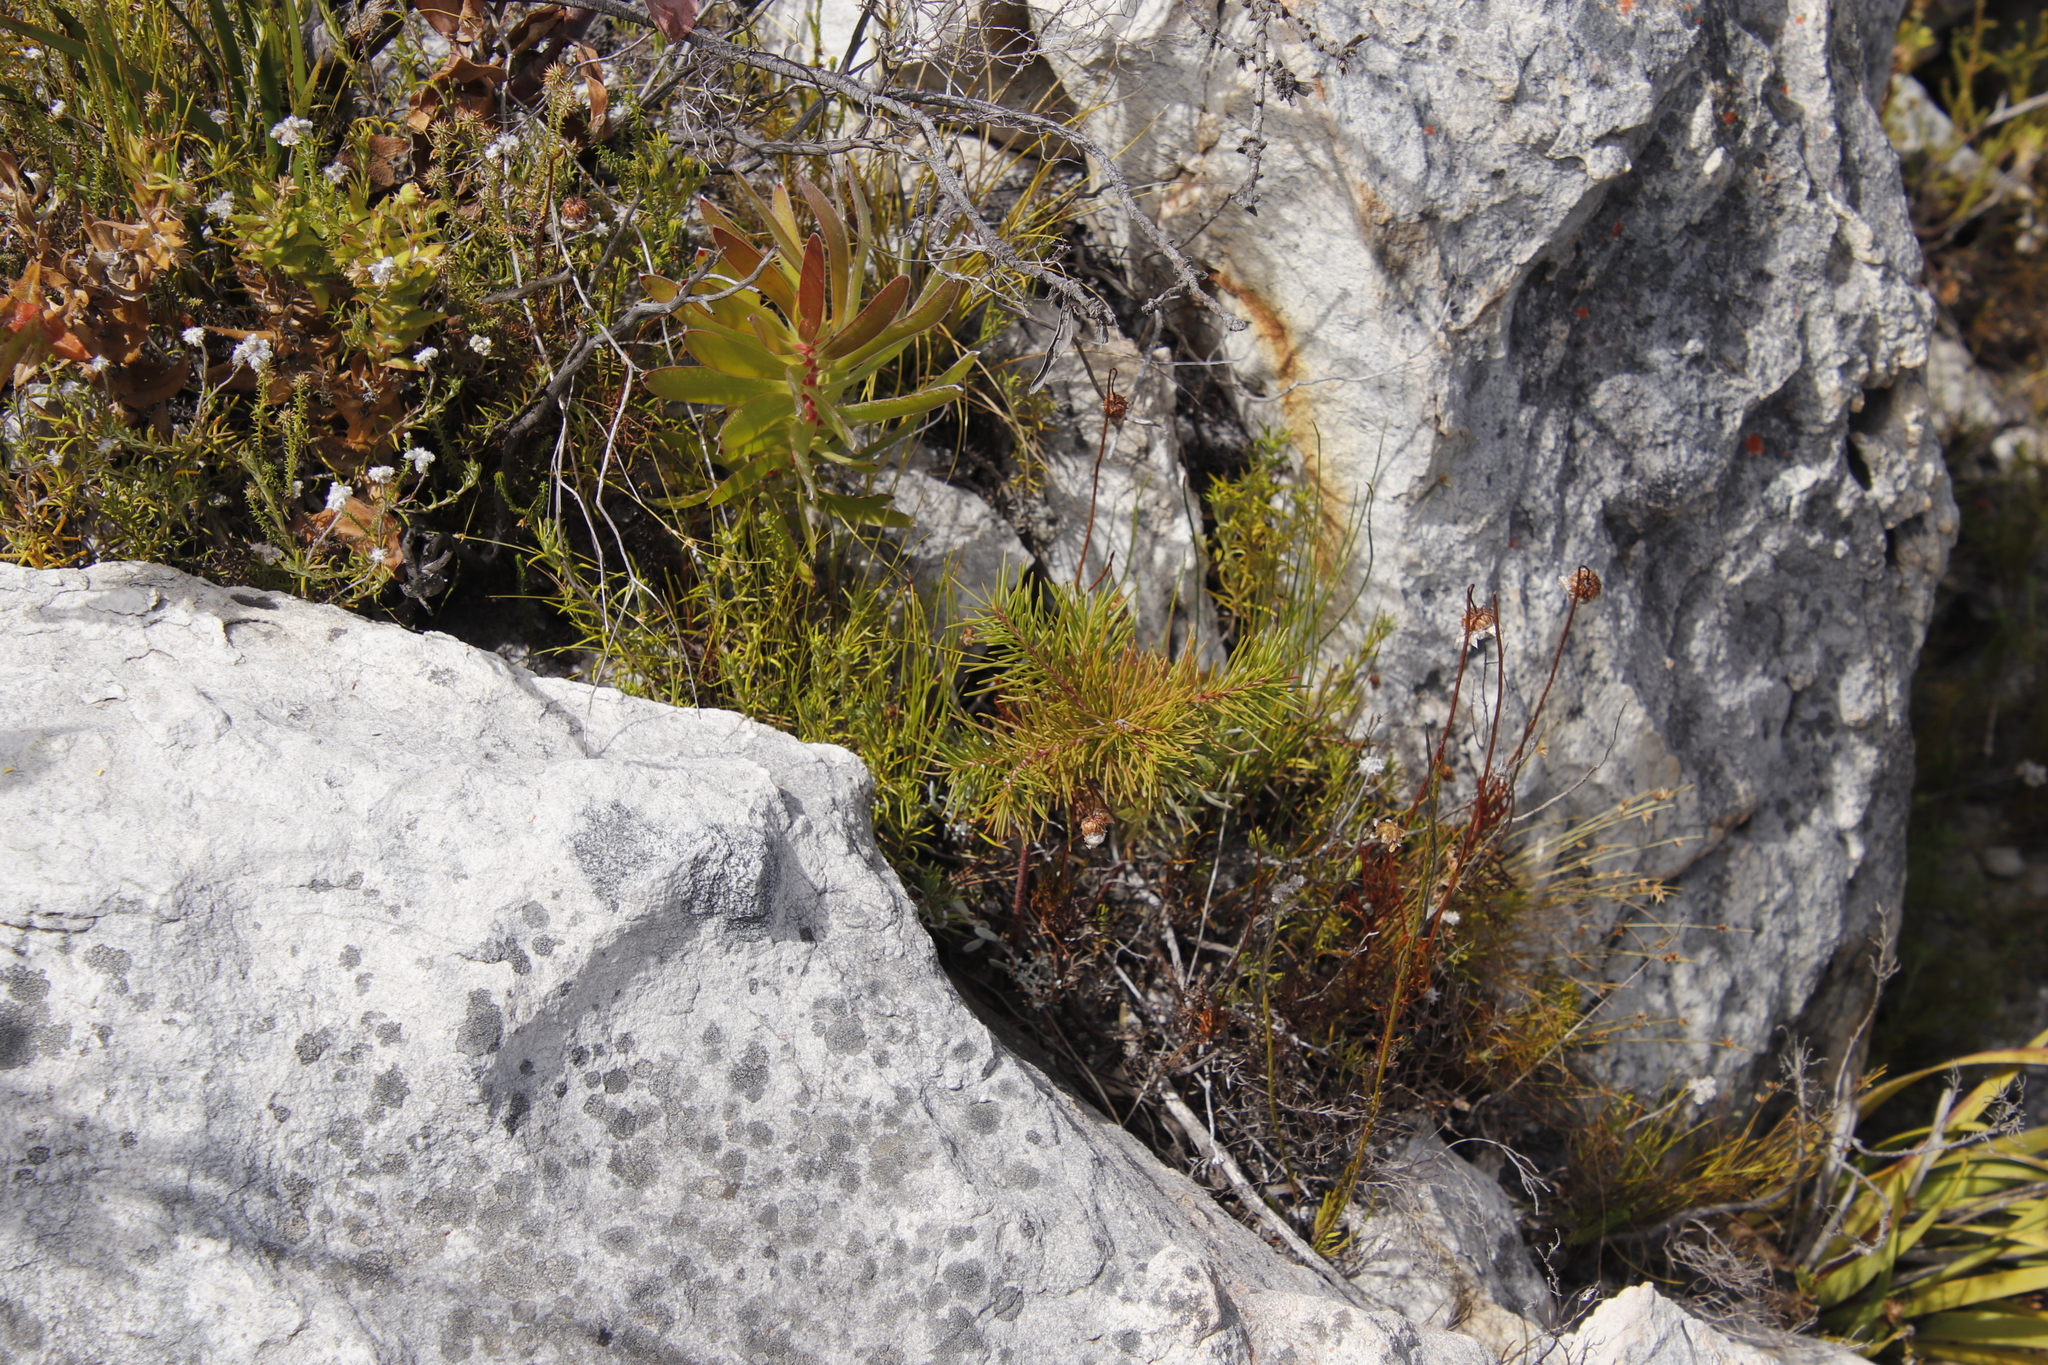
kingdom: Plantae
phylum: Tracheophyta
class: Magnoliopsida
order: Proteales
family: Proteaceae
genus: Hakea
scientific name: Hakea sericea
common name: Needle bush
